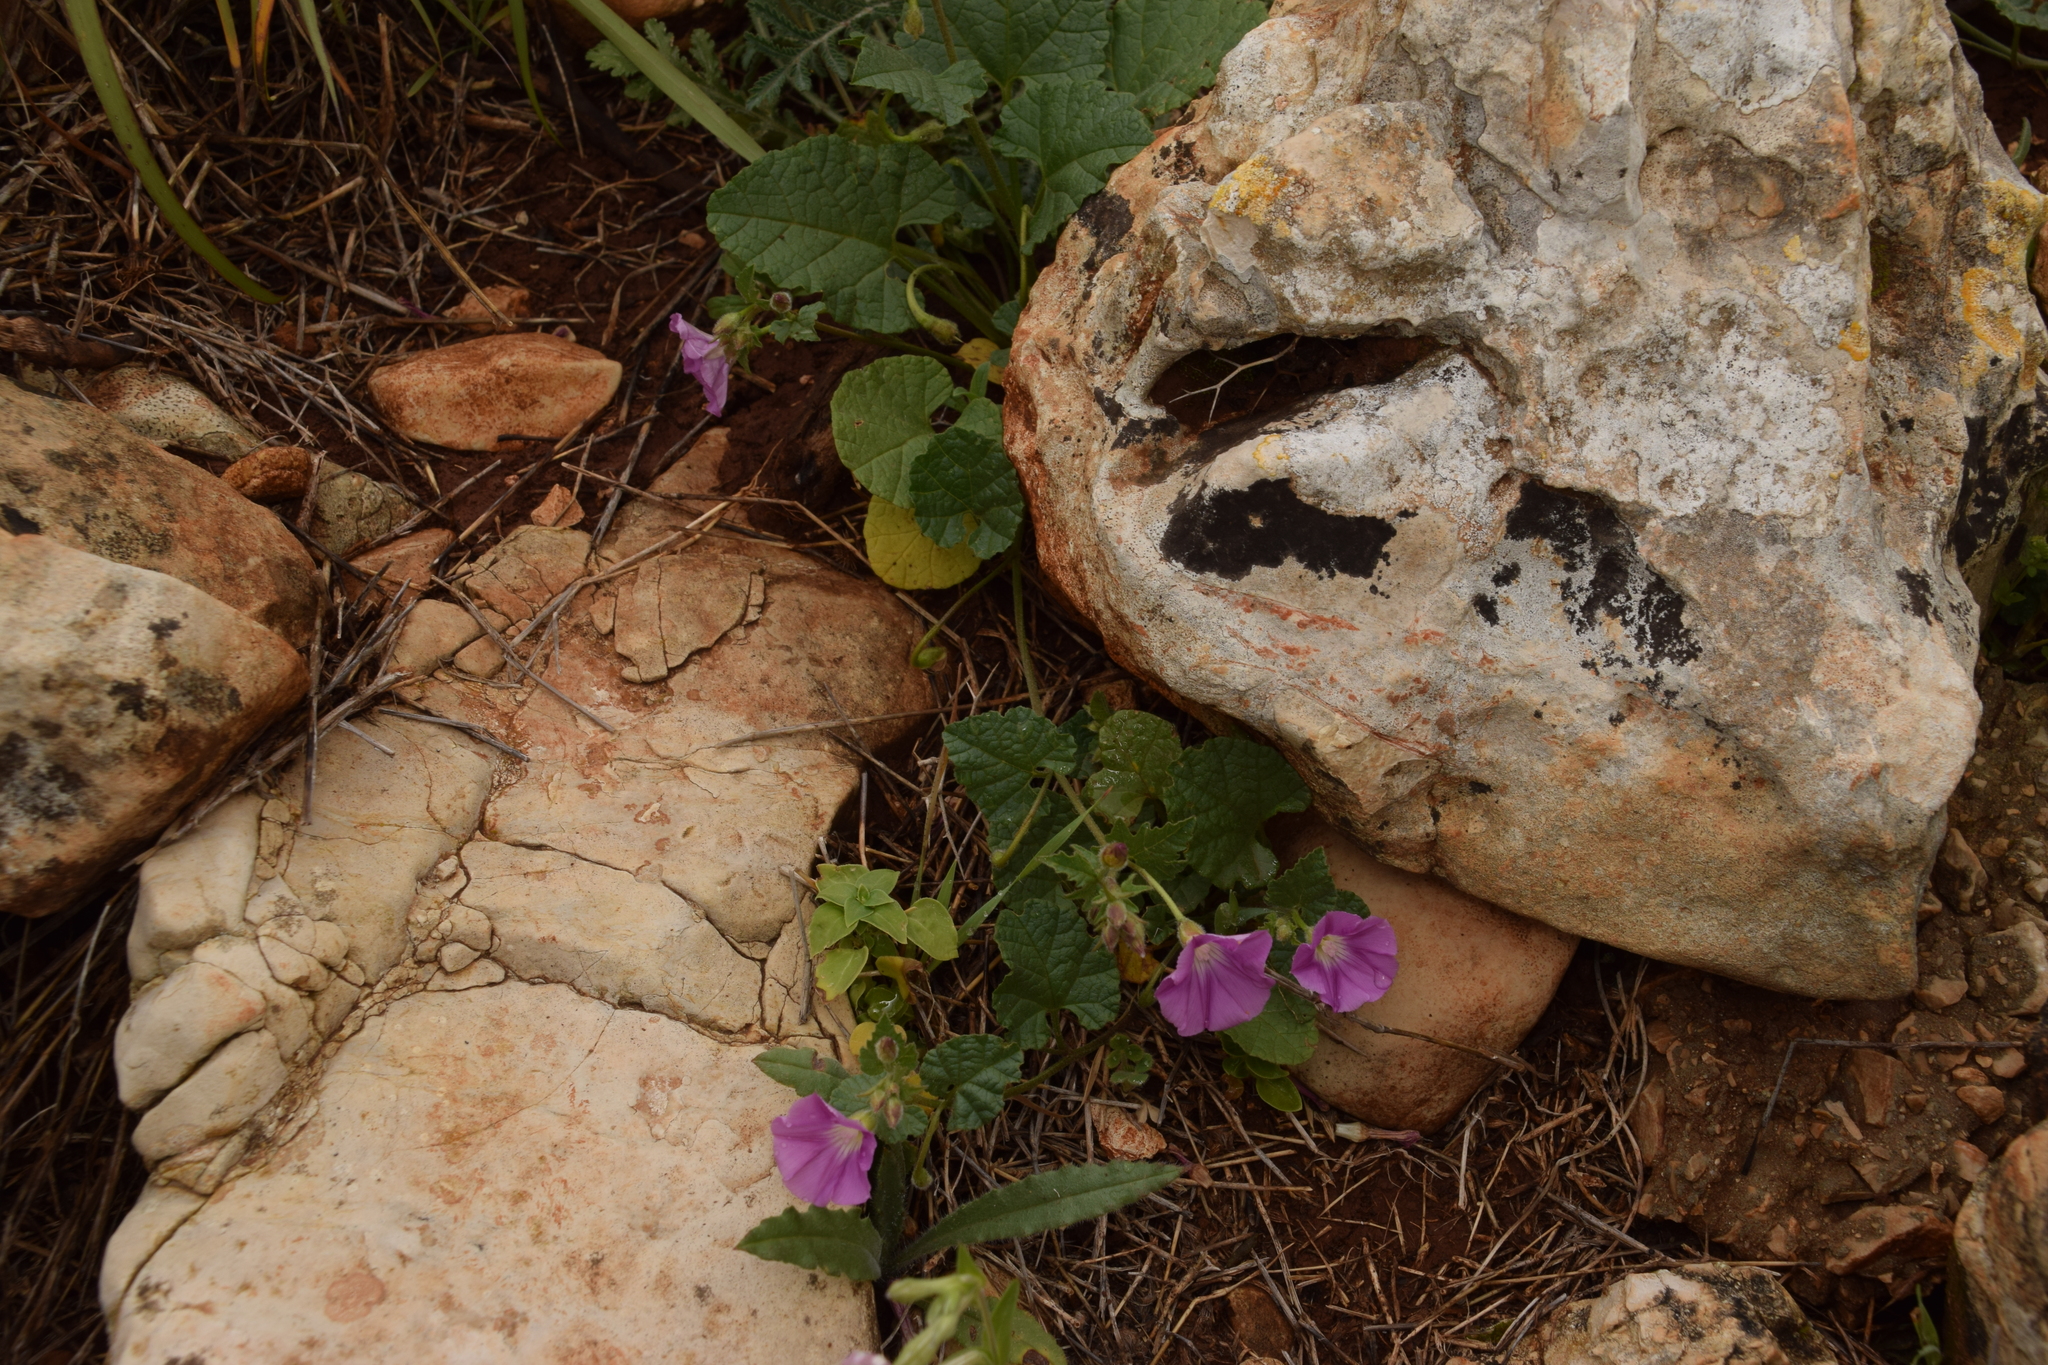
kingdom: Plantae
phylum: Tracheophyta
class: Magnoliopsida
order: Solanales
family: Convolvulaceae
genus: Convolvulus
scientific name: Convolvulus coelesyriacus
